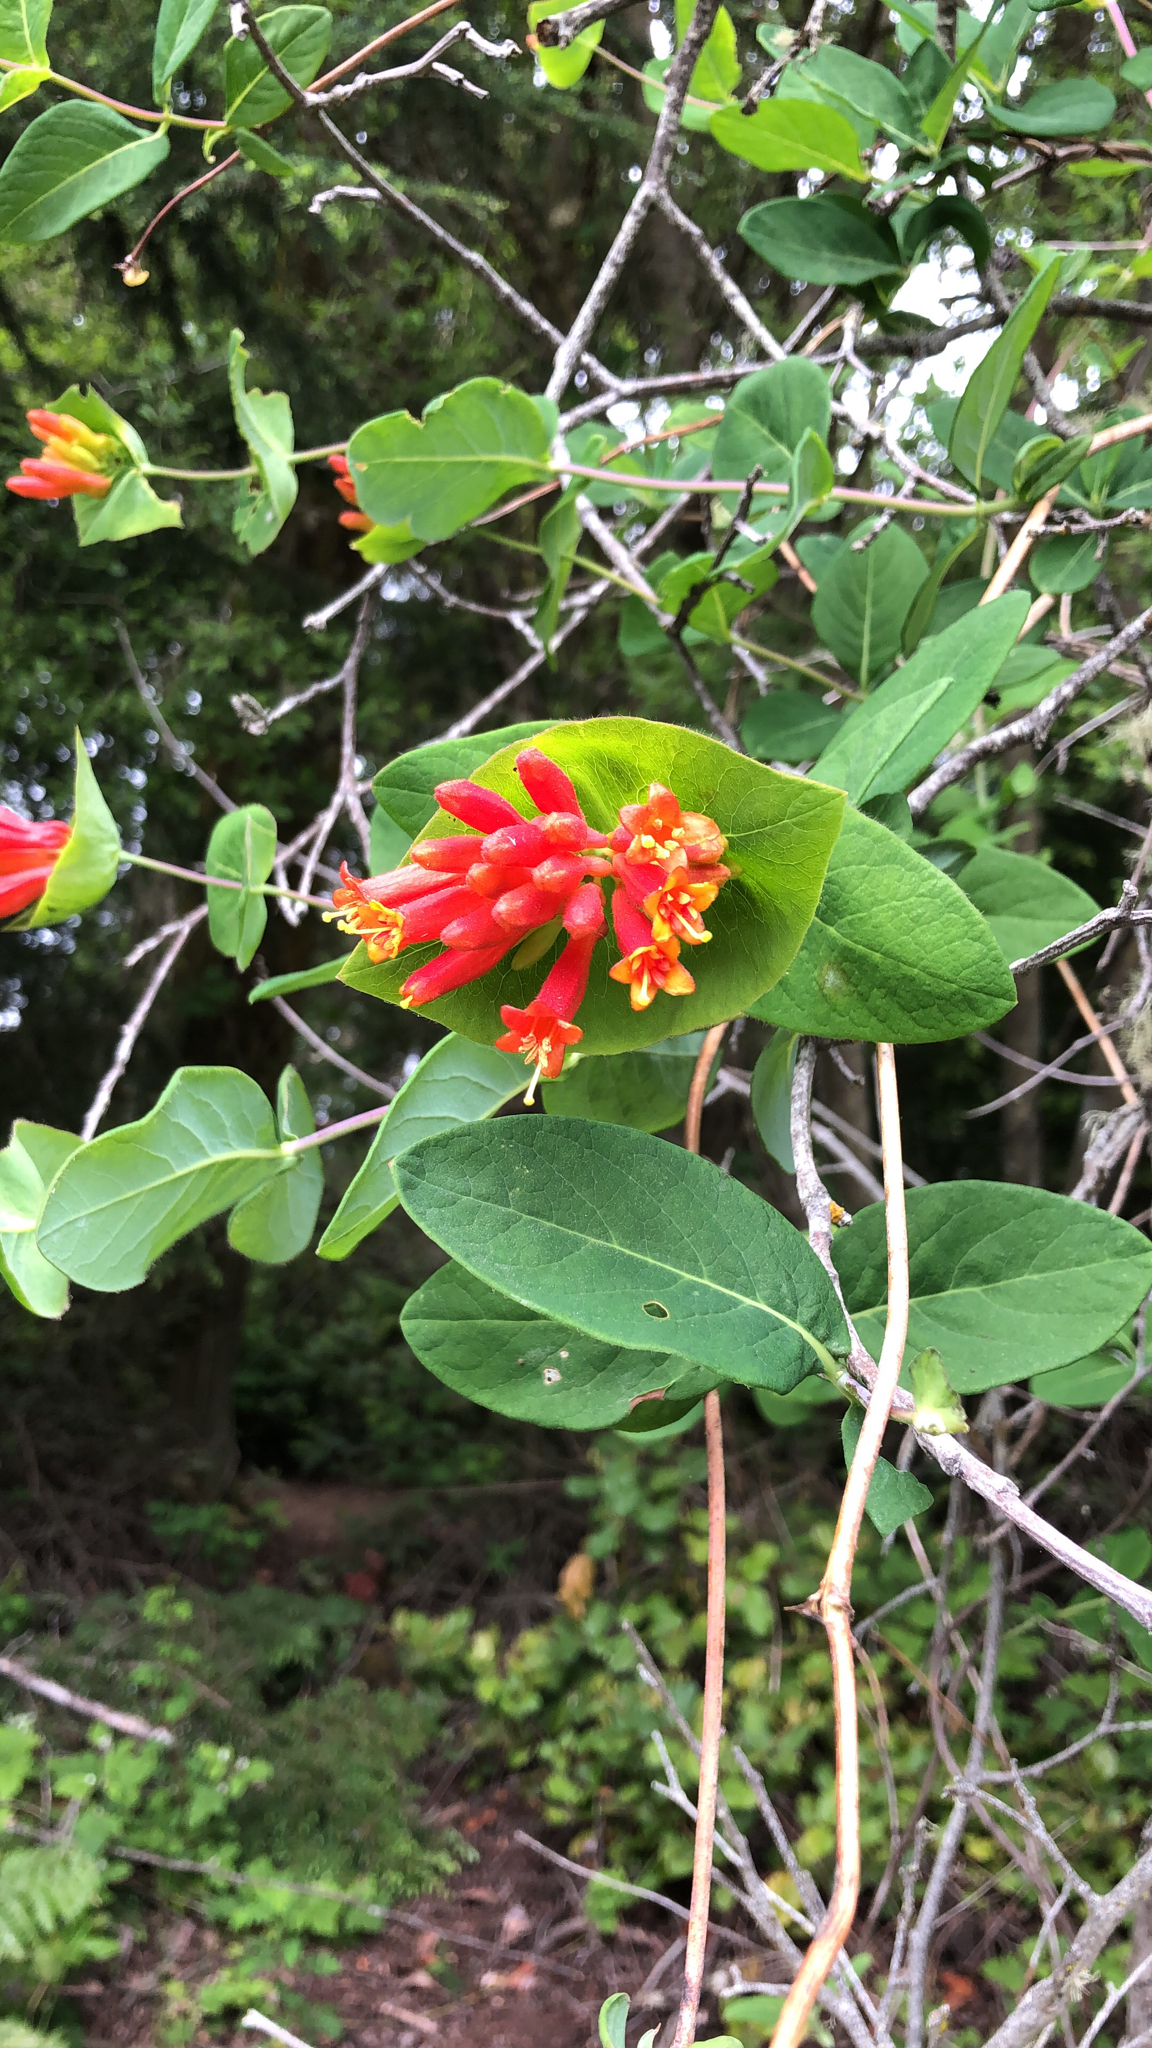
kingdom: Plantae
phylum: Tracheophyta
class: Magnoliopsida
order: Dipsacales
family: Caprifoliaceae
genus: Lonicera
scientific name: Lonicera ciliosa
